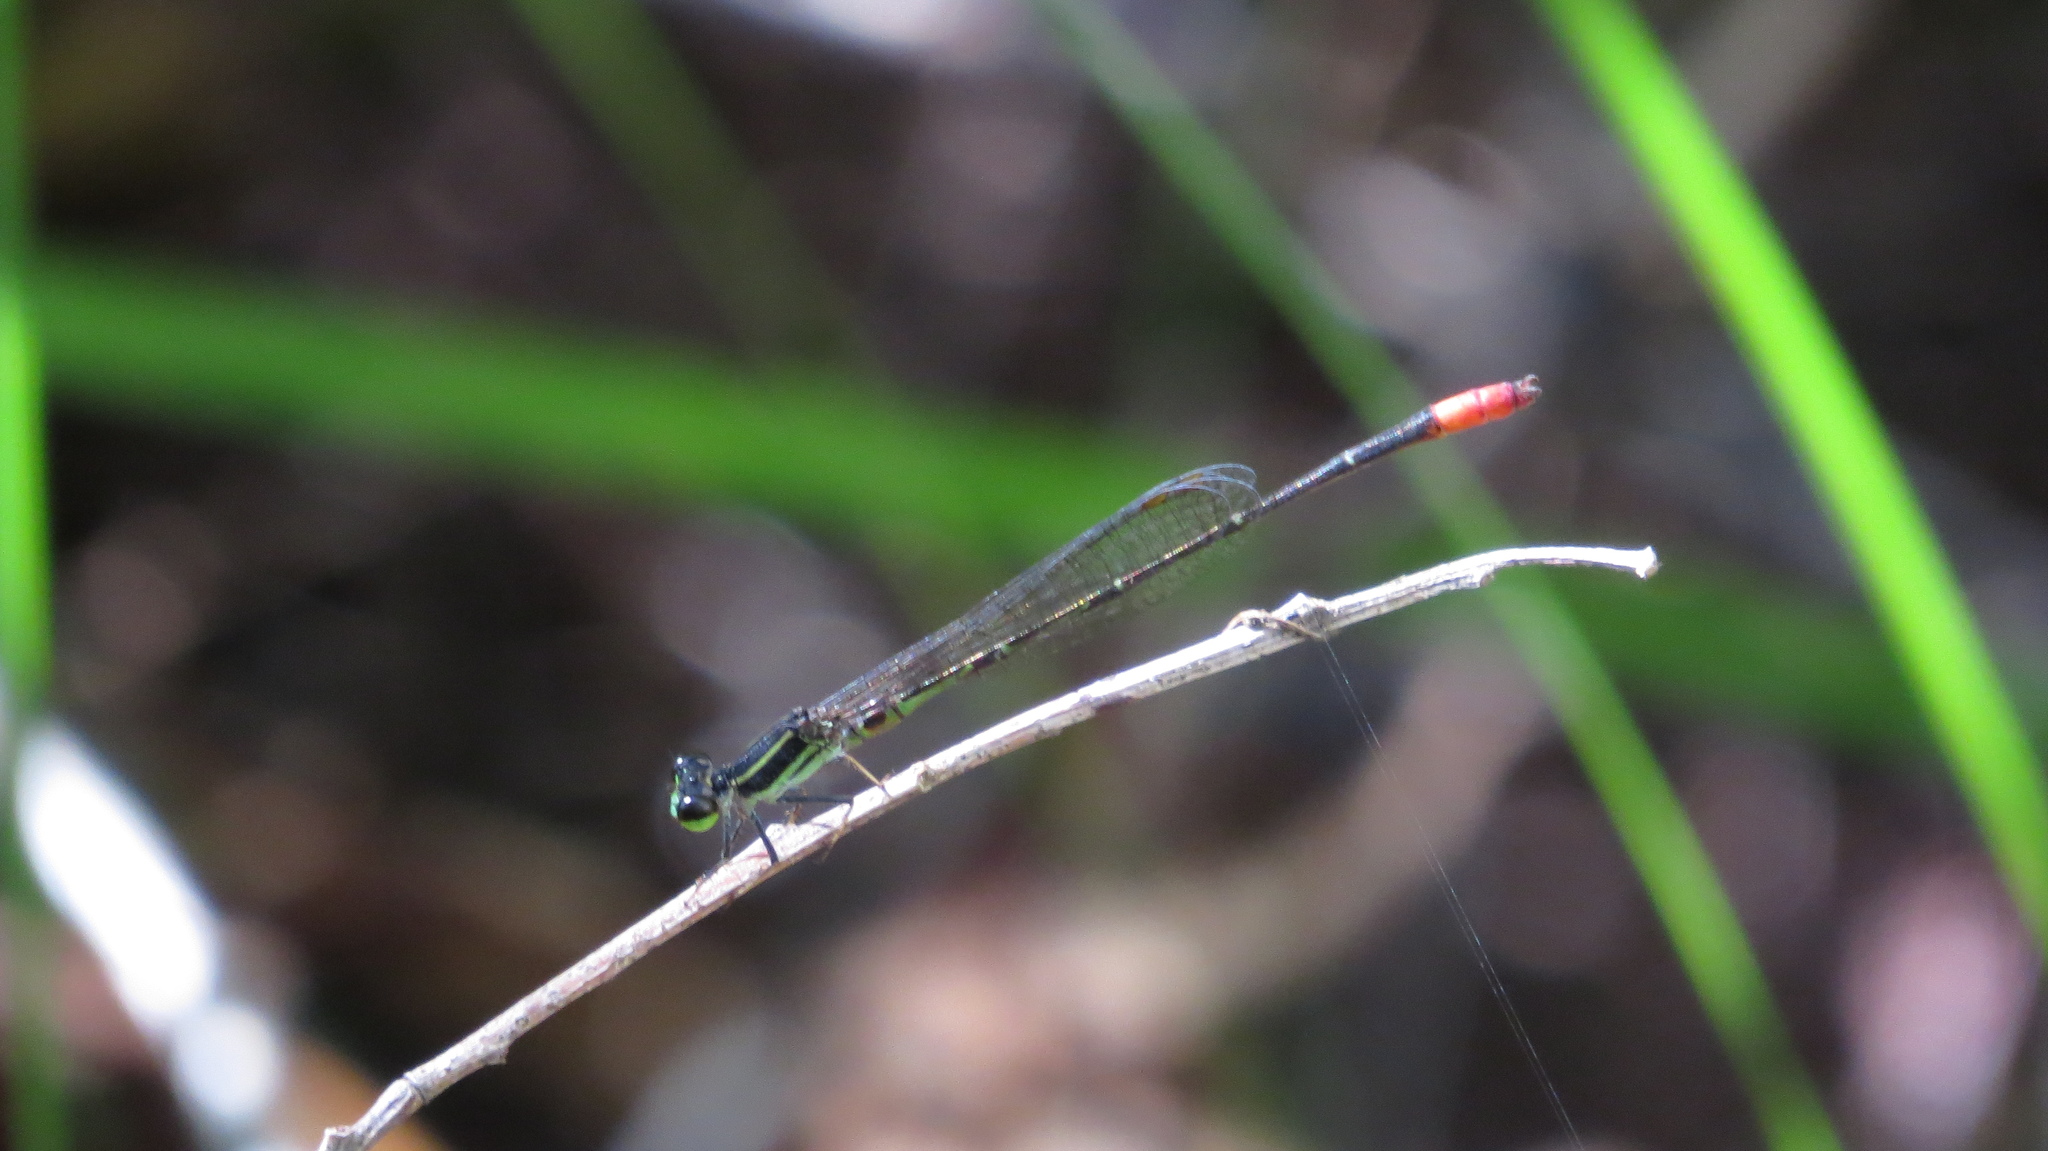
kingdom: Animalia
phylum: Arthropoda
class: Insecta
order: Odonata
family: Coenagrionidae
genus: Argiocnemis
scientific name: Argiocnemis rubescens
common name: Red-tipped shadefly
